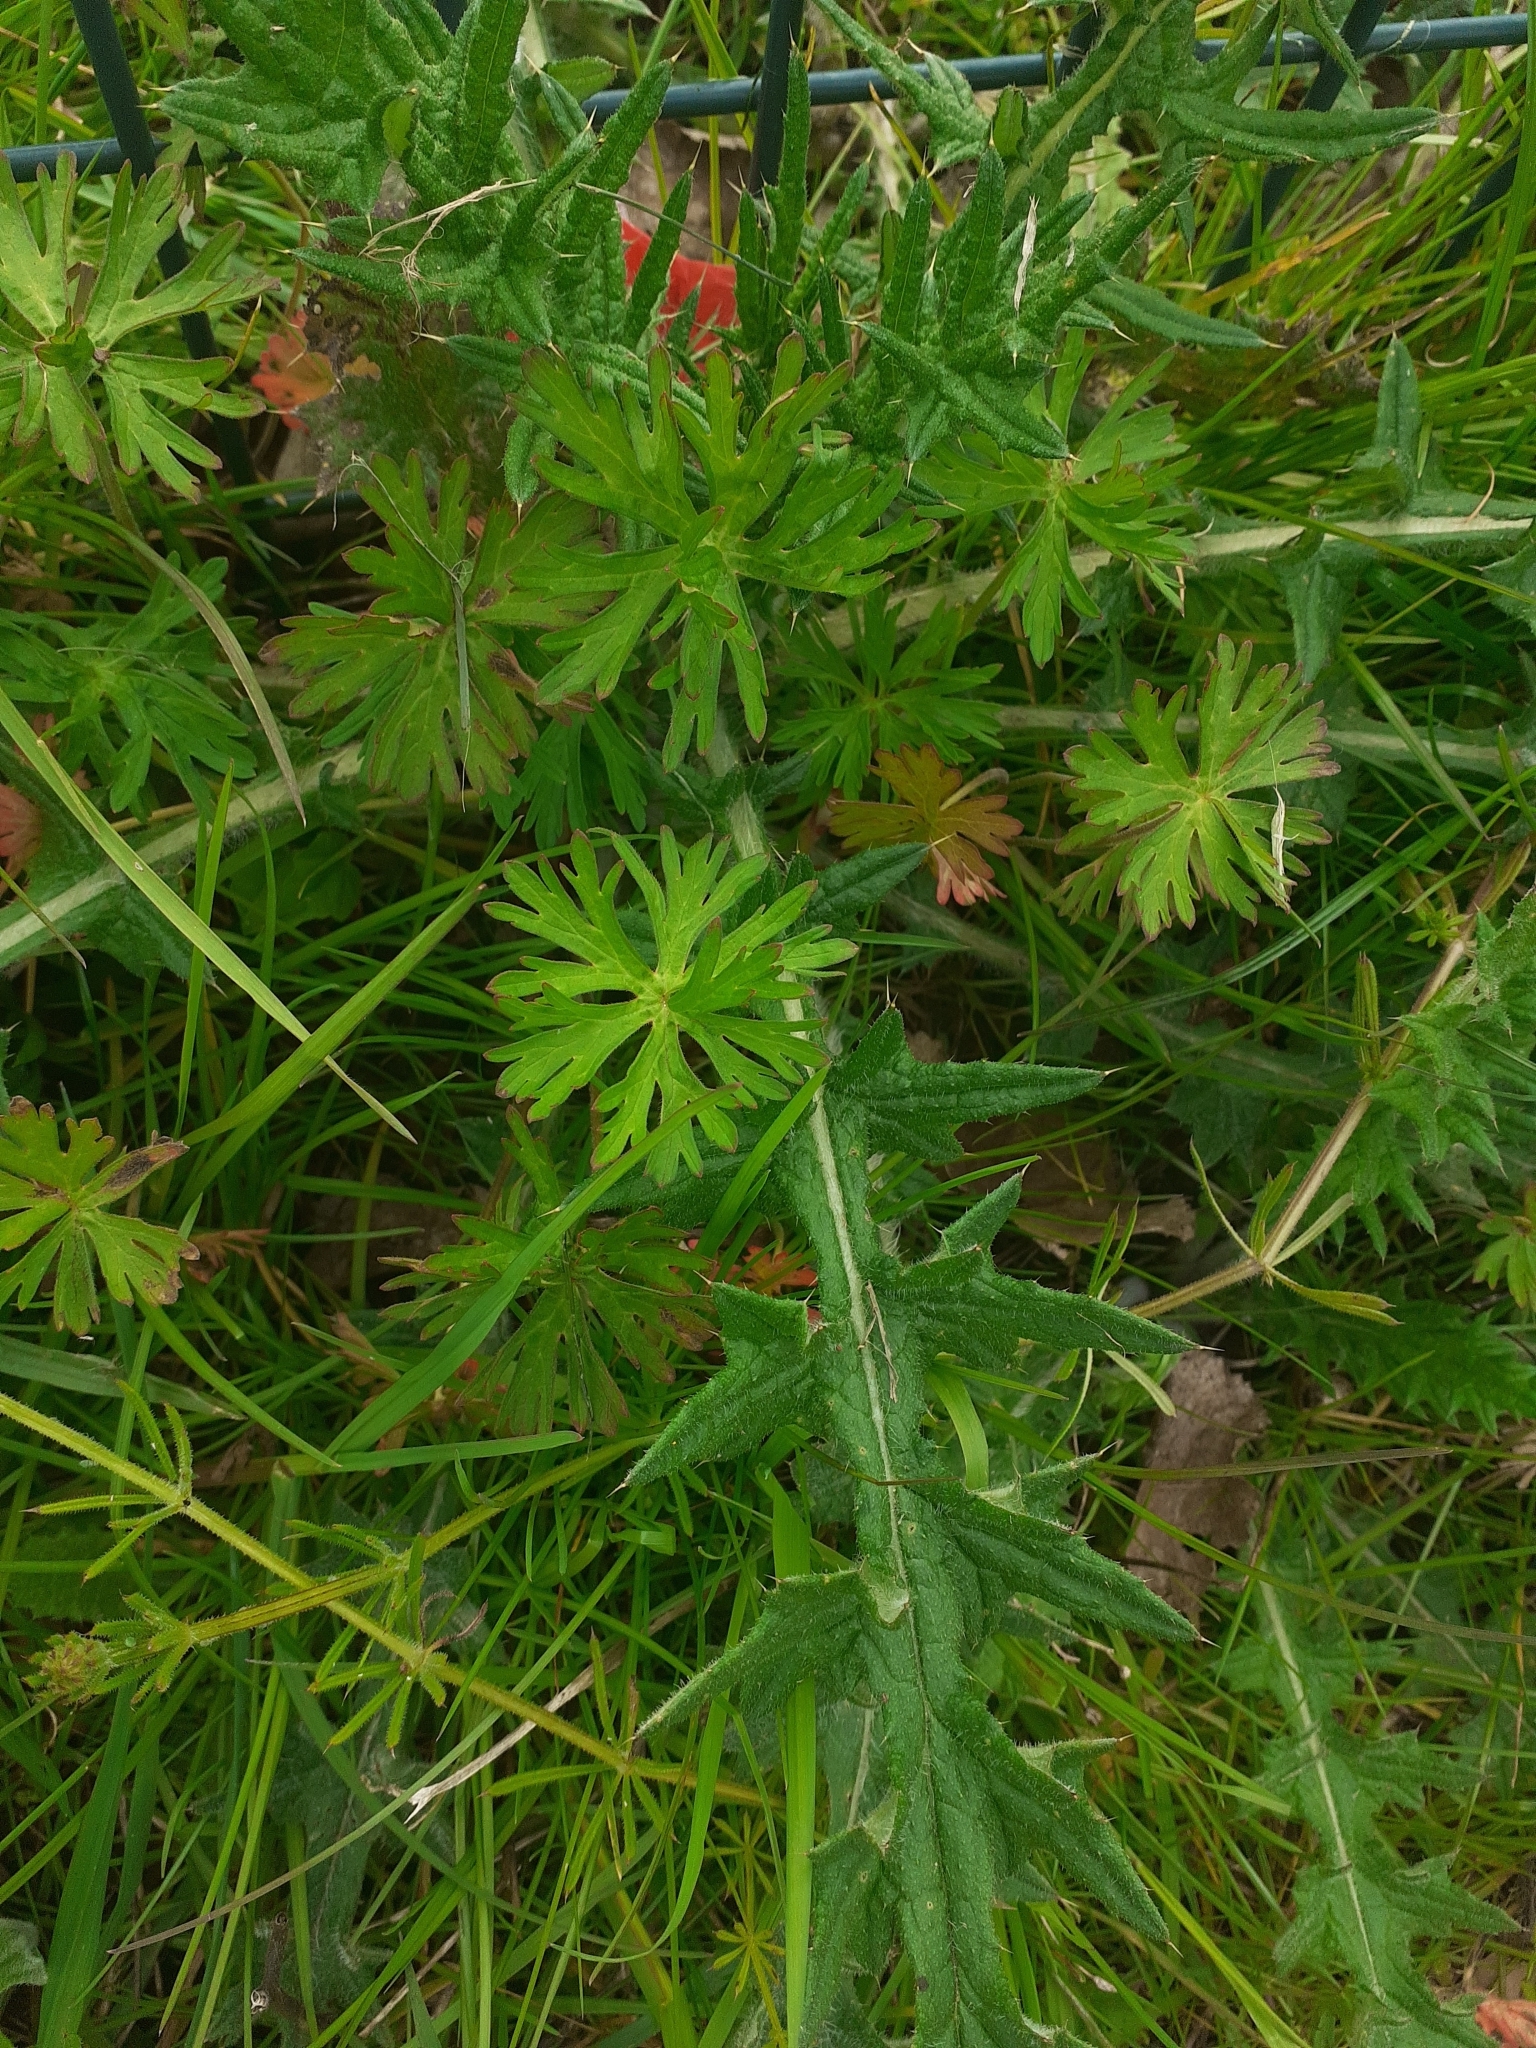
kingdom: Plantae
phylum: Tracheophyta
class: Magnoliopsida
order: Geraniales
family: Geraniaceae
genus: Geranium
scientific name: Geranium dissectum
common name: Cut-leaved crane's-bill
